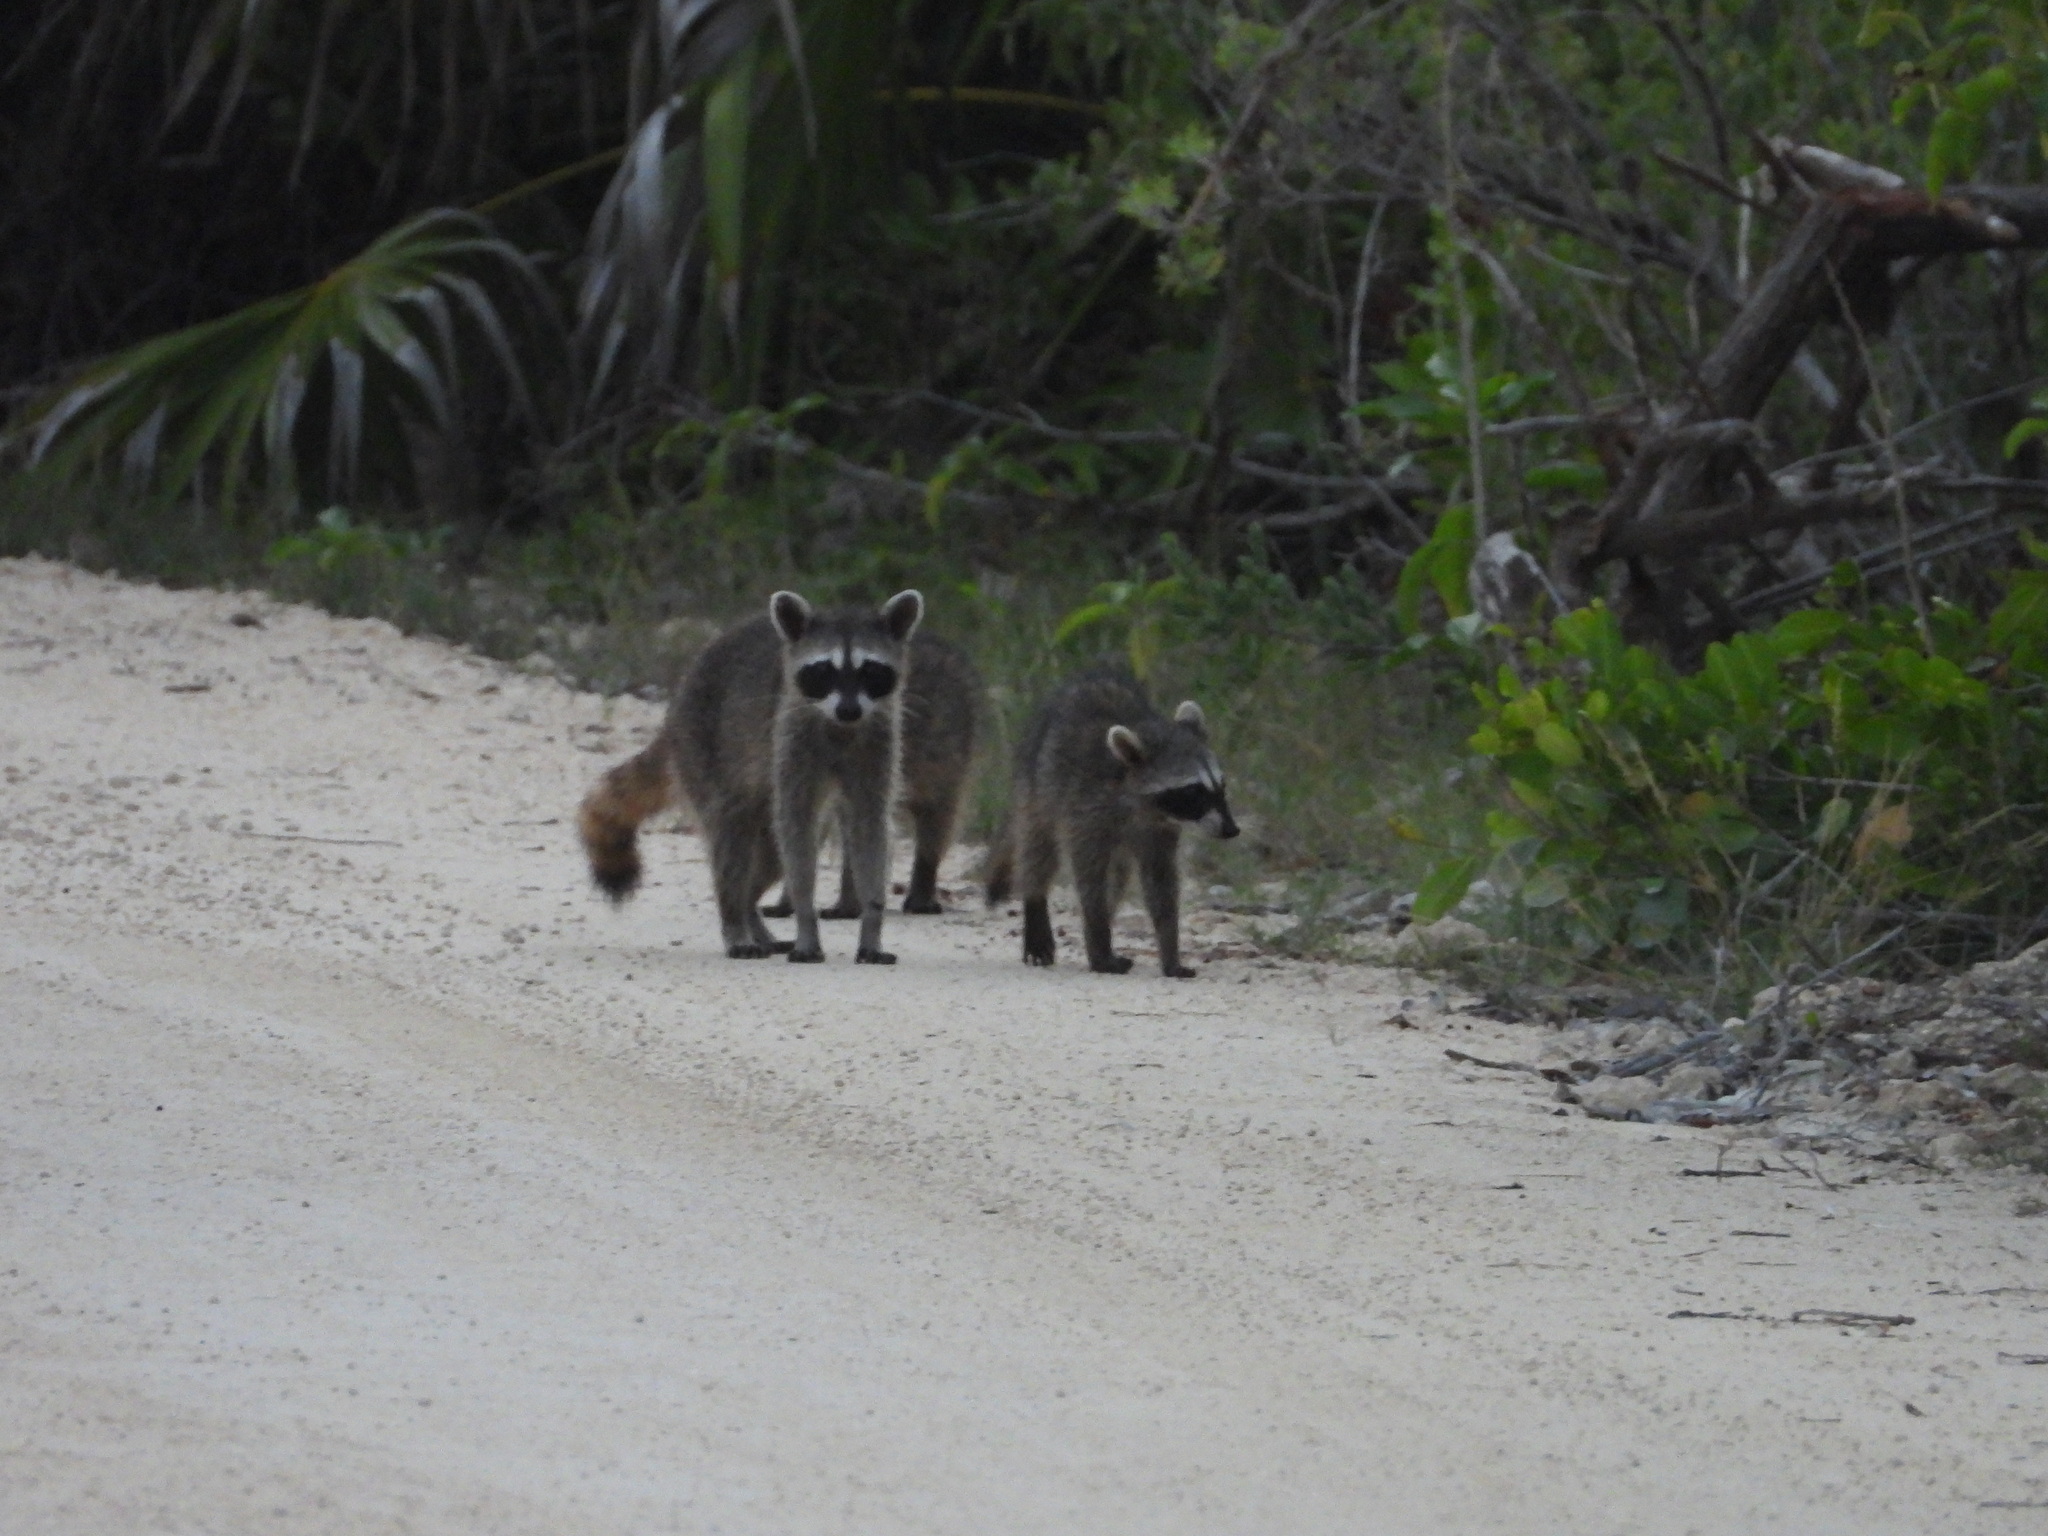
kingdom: Animalia
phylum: Chordata
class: Mammalia
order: Carnivora
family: Procyonidae
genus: Procyon
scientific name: Procyon pygmaeus
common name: Cozumel raccoon
